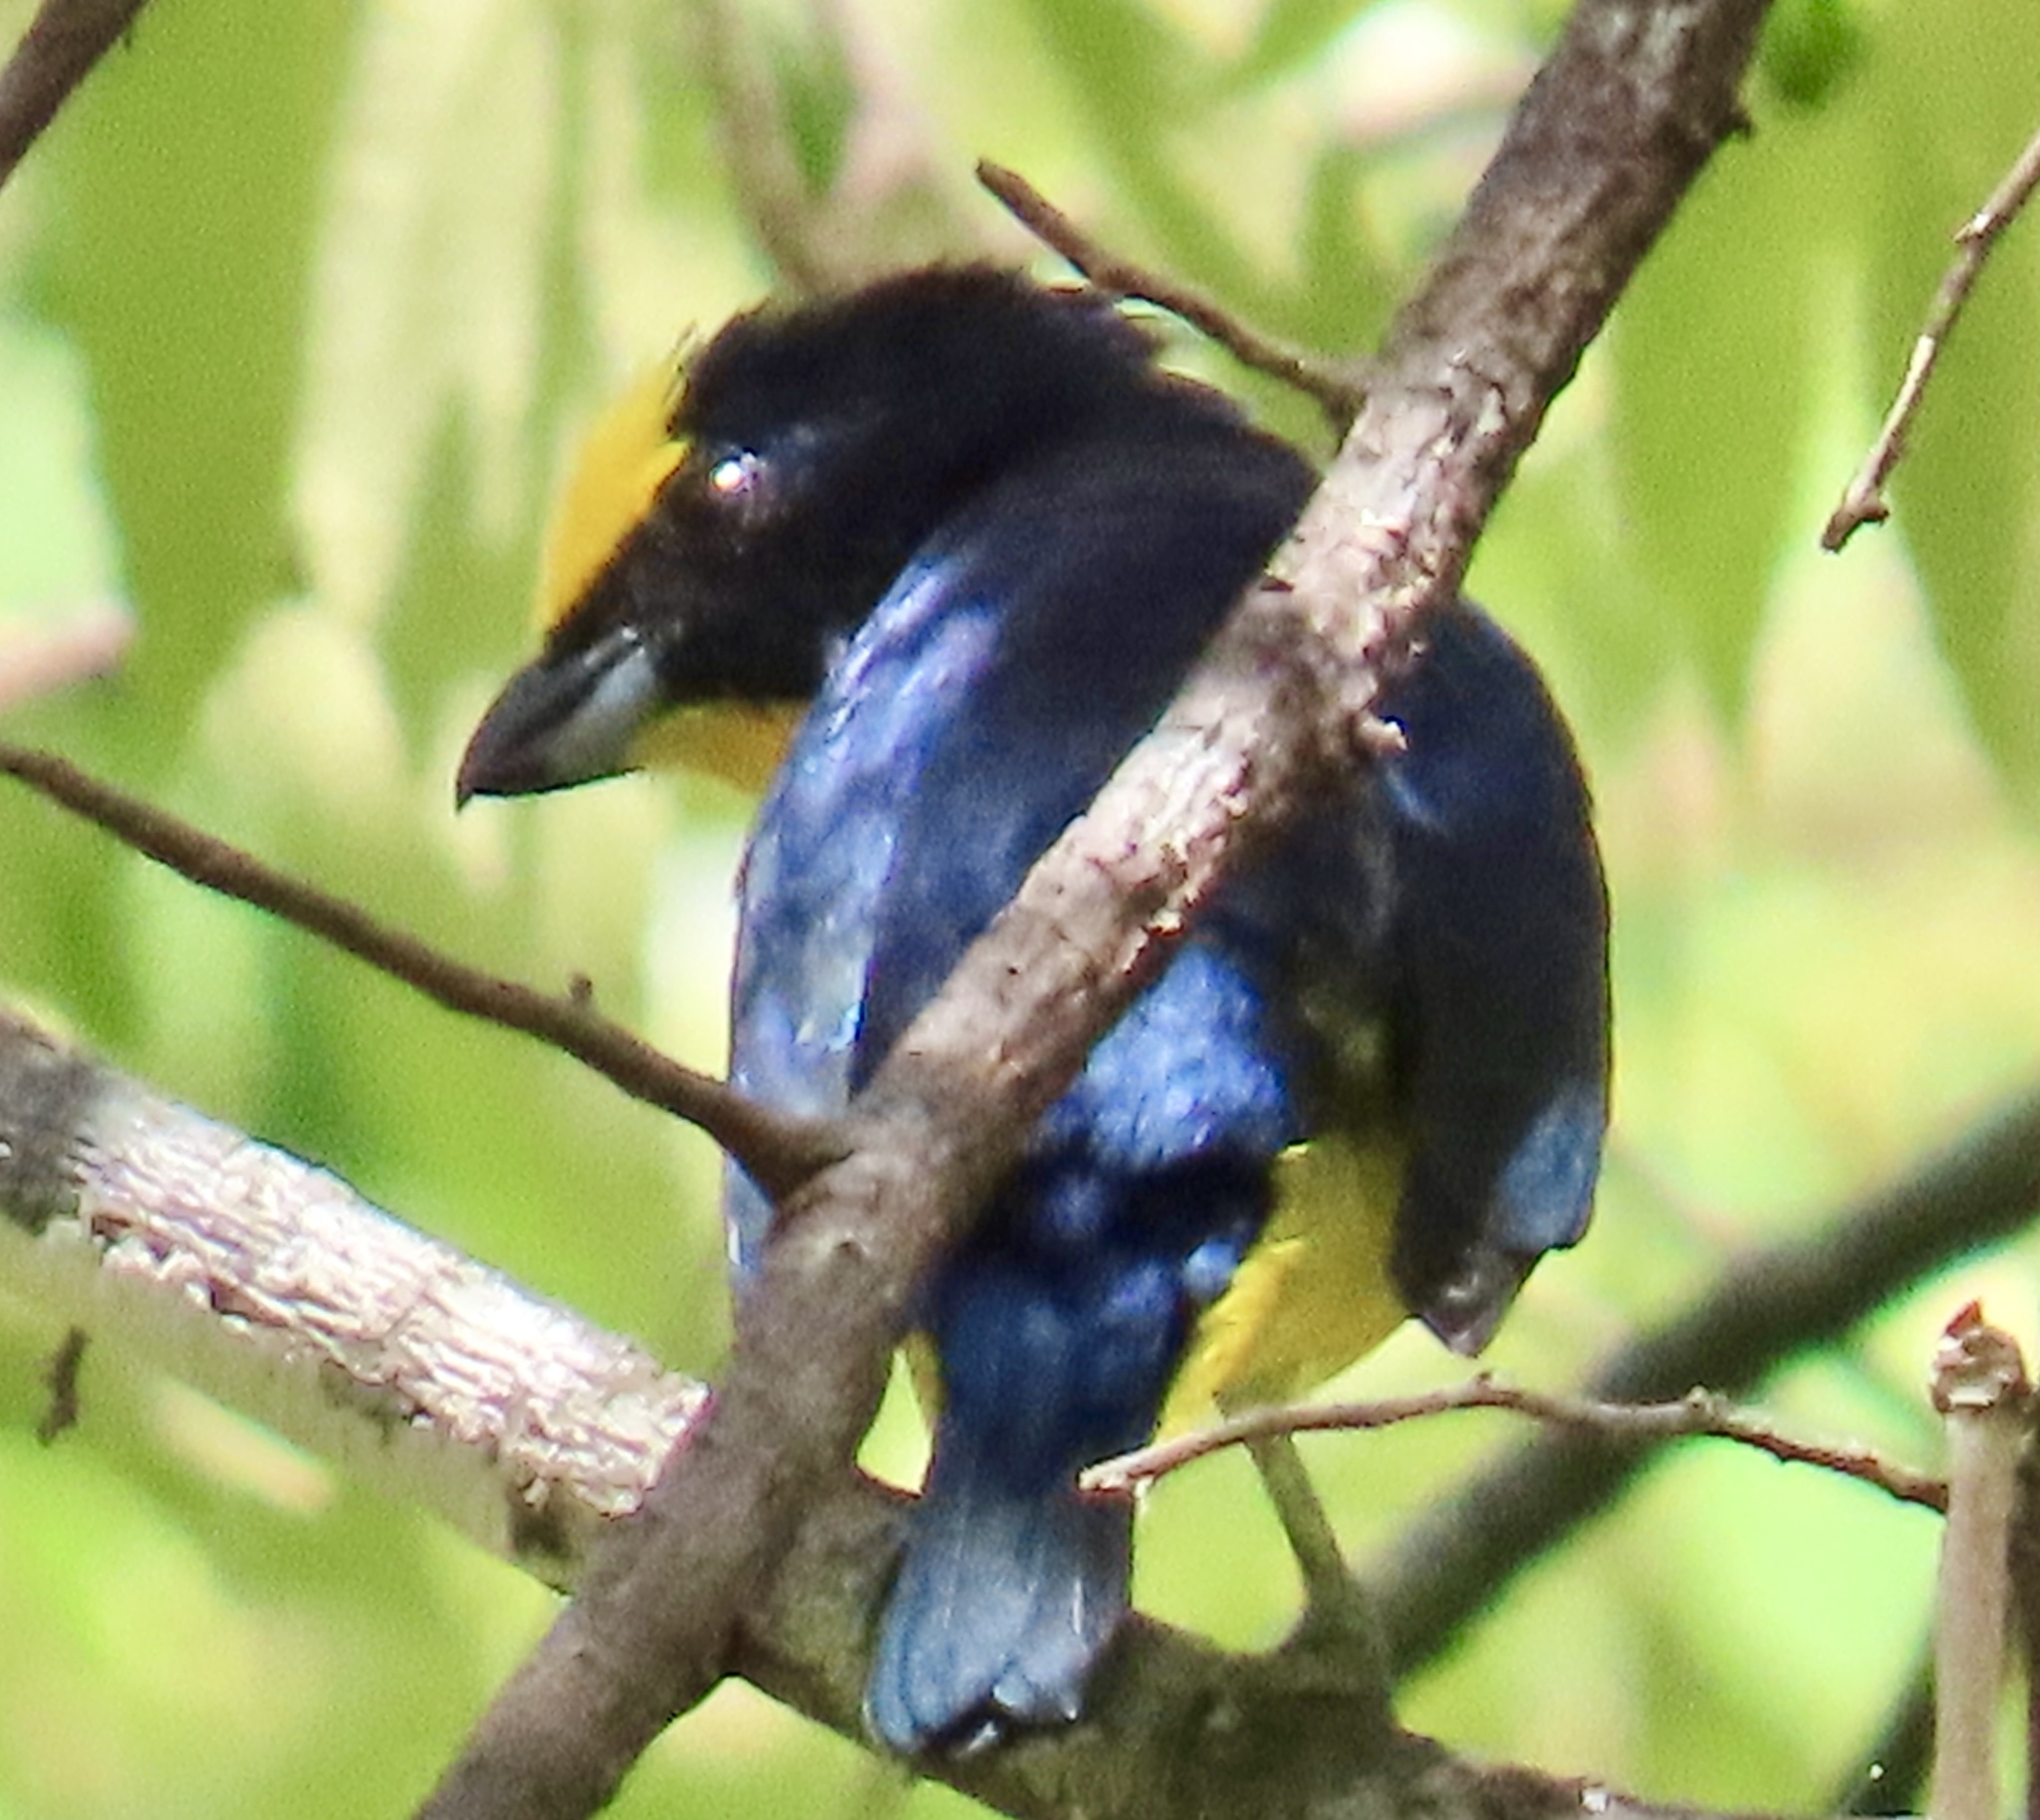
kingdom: Animalia
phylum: Chordata
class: Aves
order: Passeriformes
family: Fringillidae
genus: Euphonia
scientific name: Euphonia laniirostris
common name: Thick-billed euphonia
